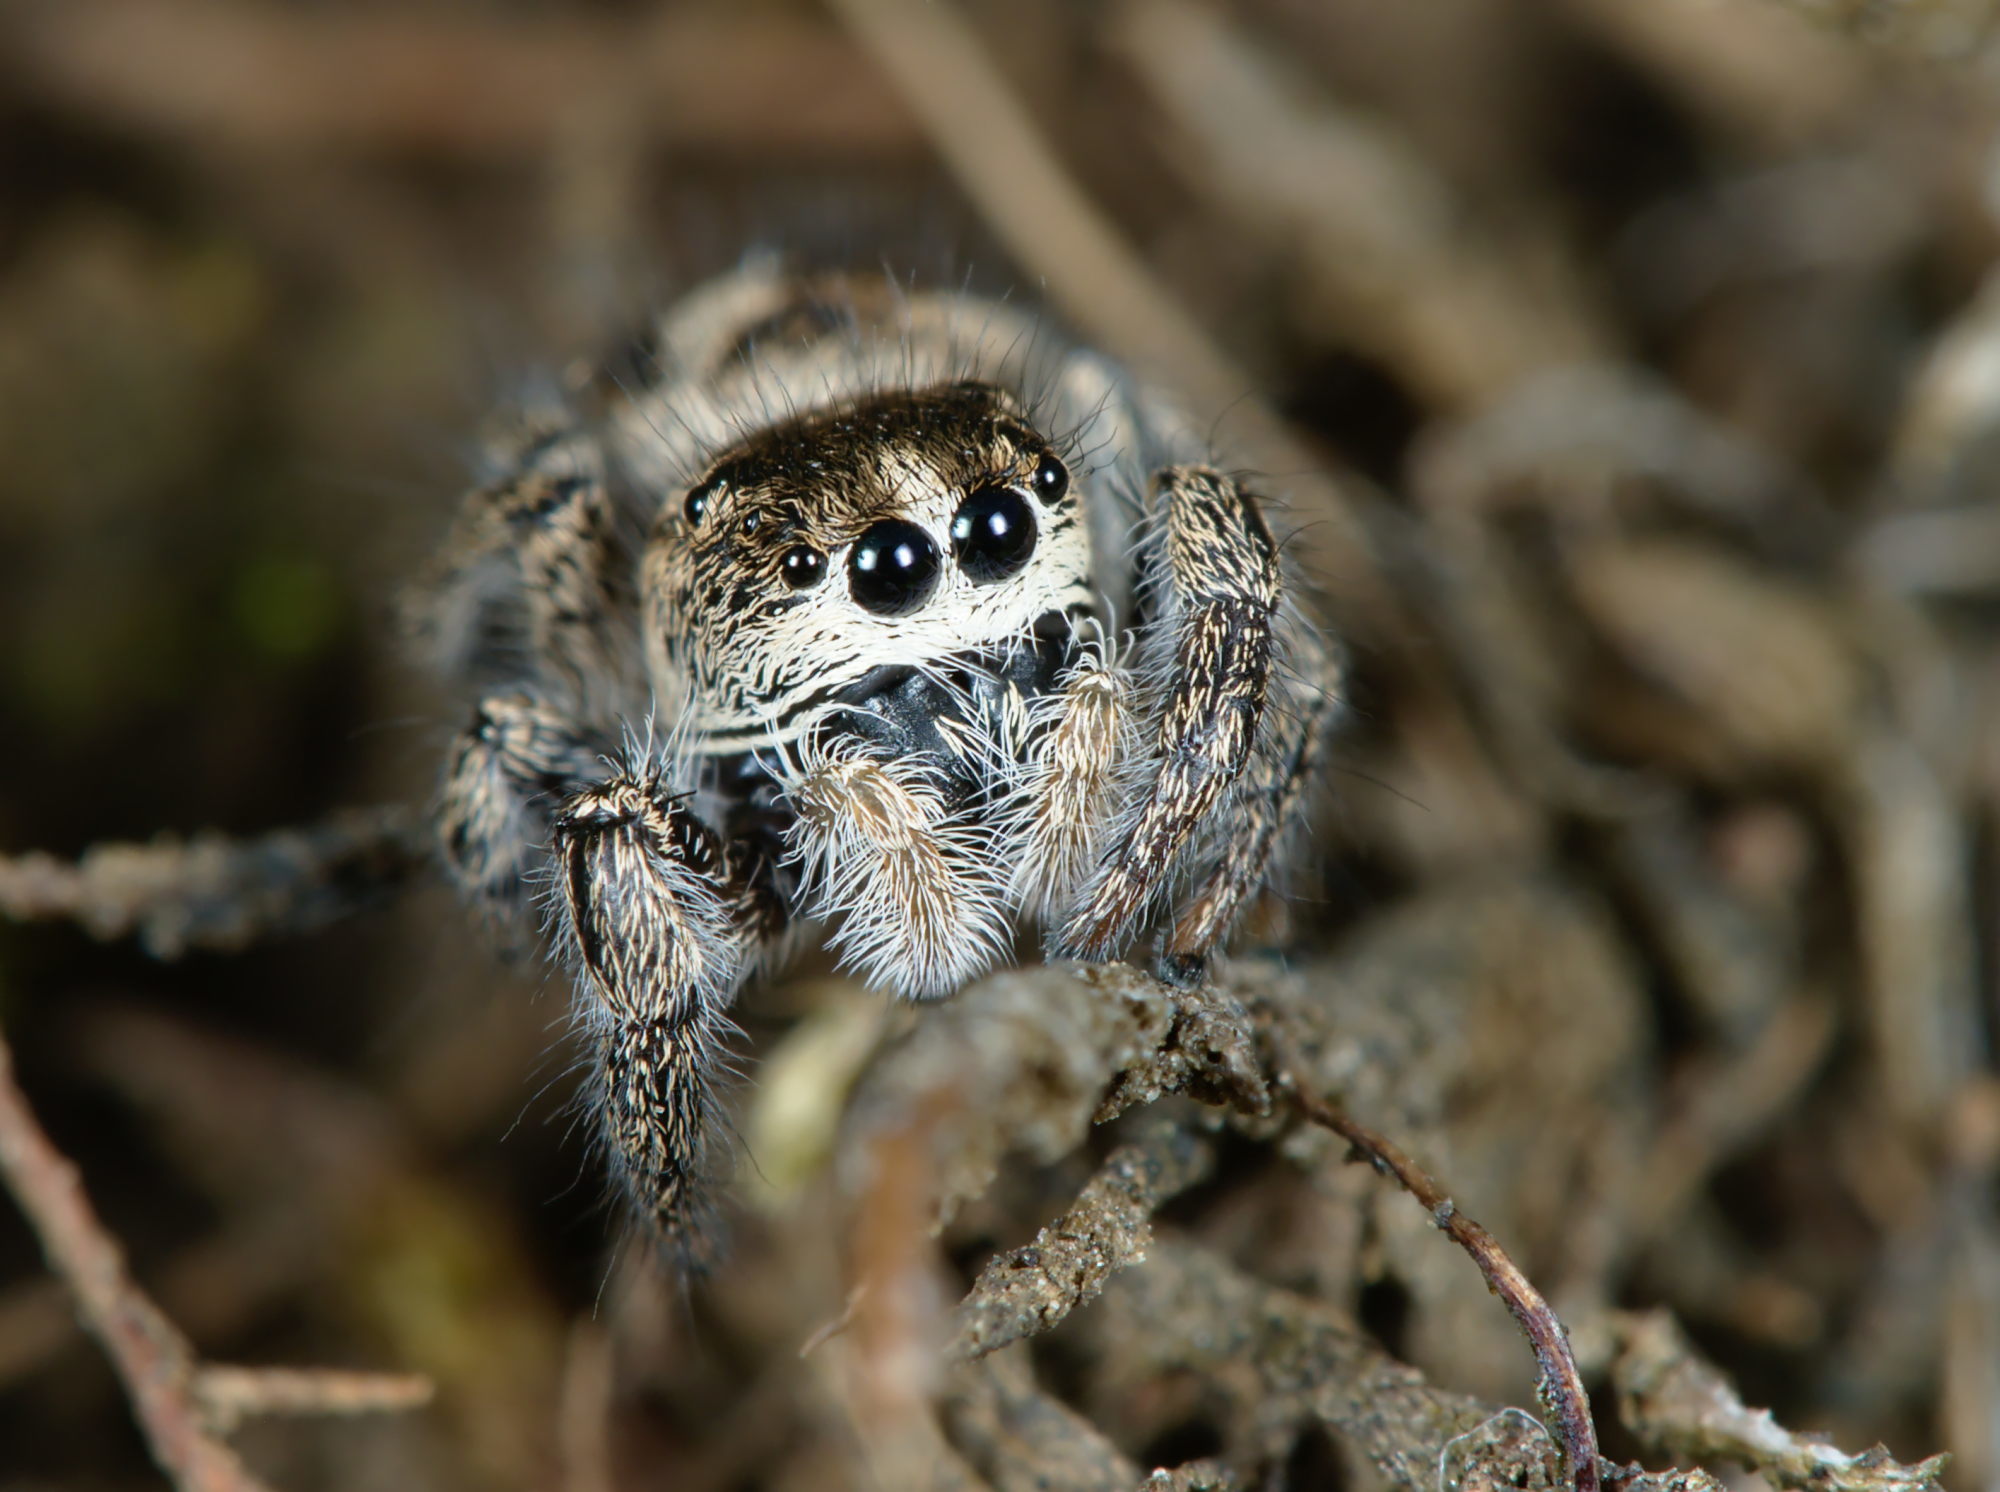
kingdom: Animalia
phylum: Arthropoda
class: Arachnida
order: Araneae
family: Salticidae
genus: Pellenes
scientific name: Pellenes tripunctatus
